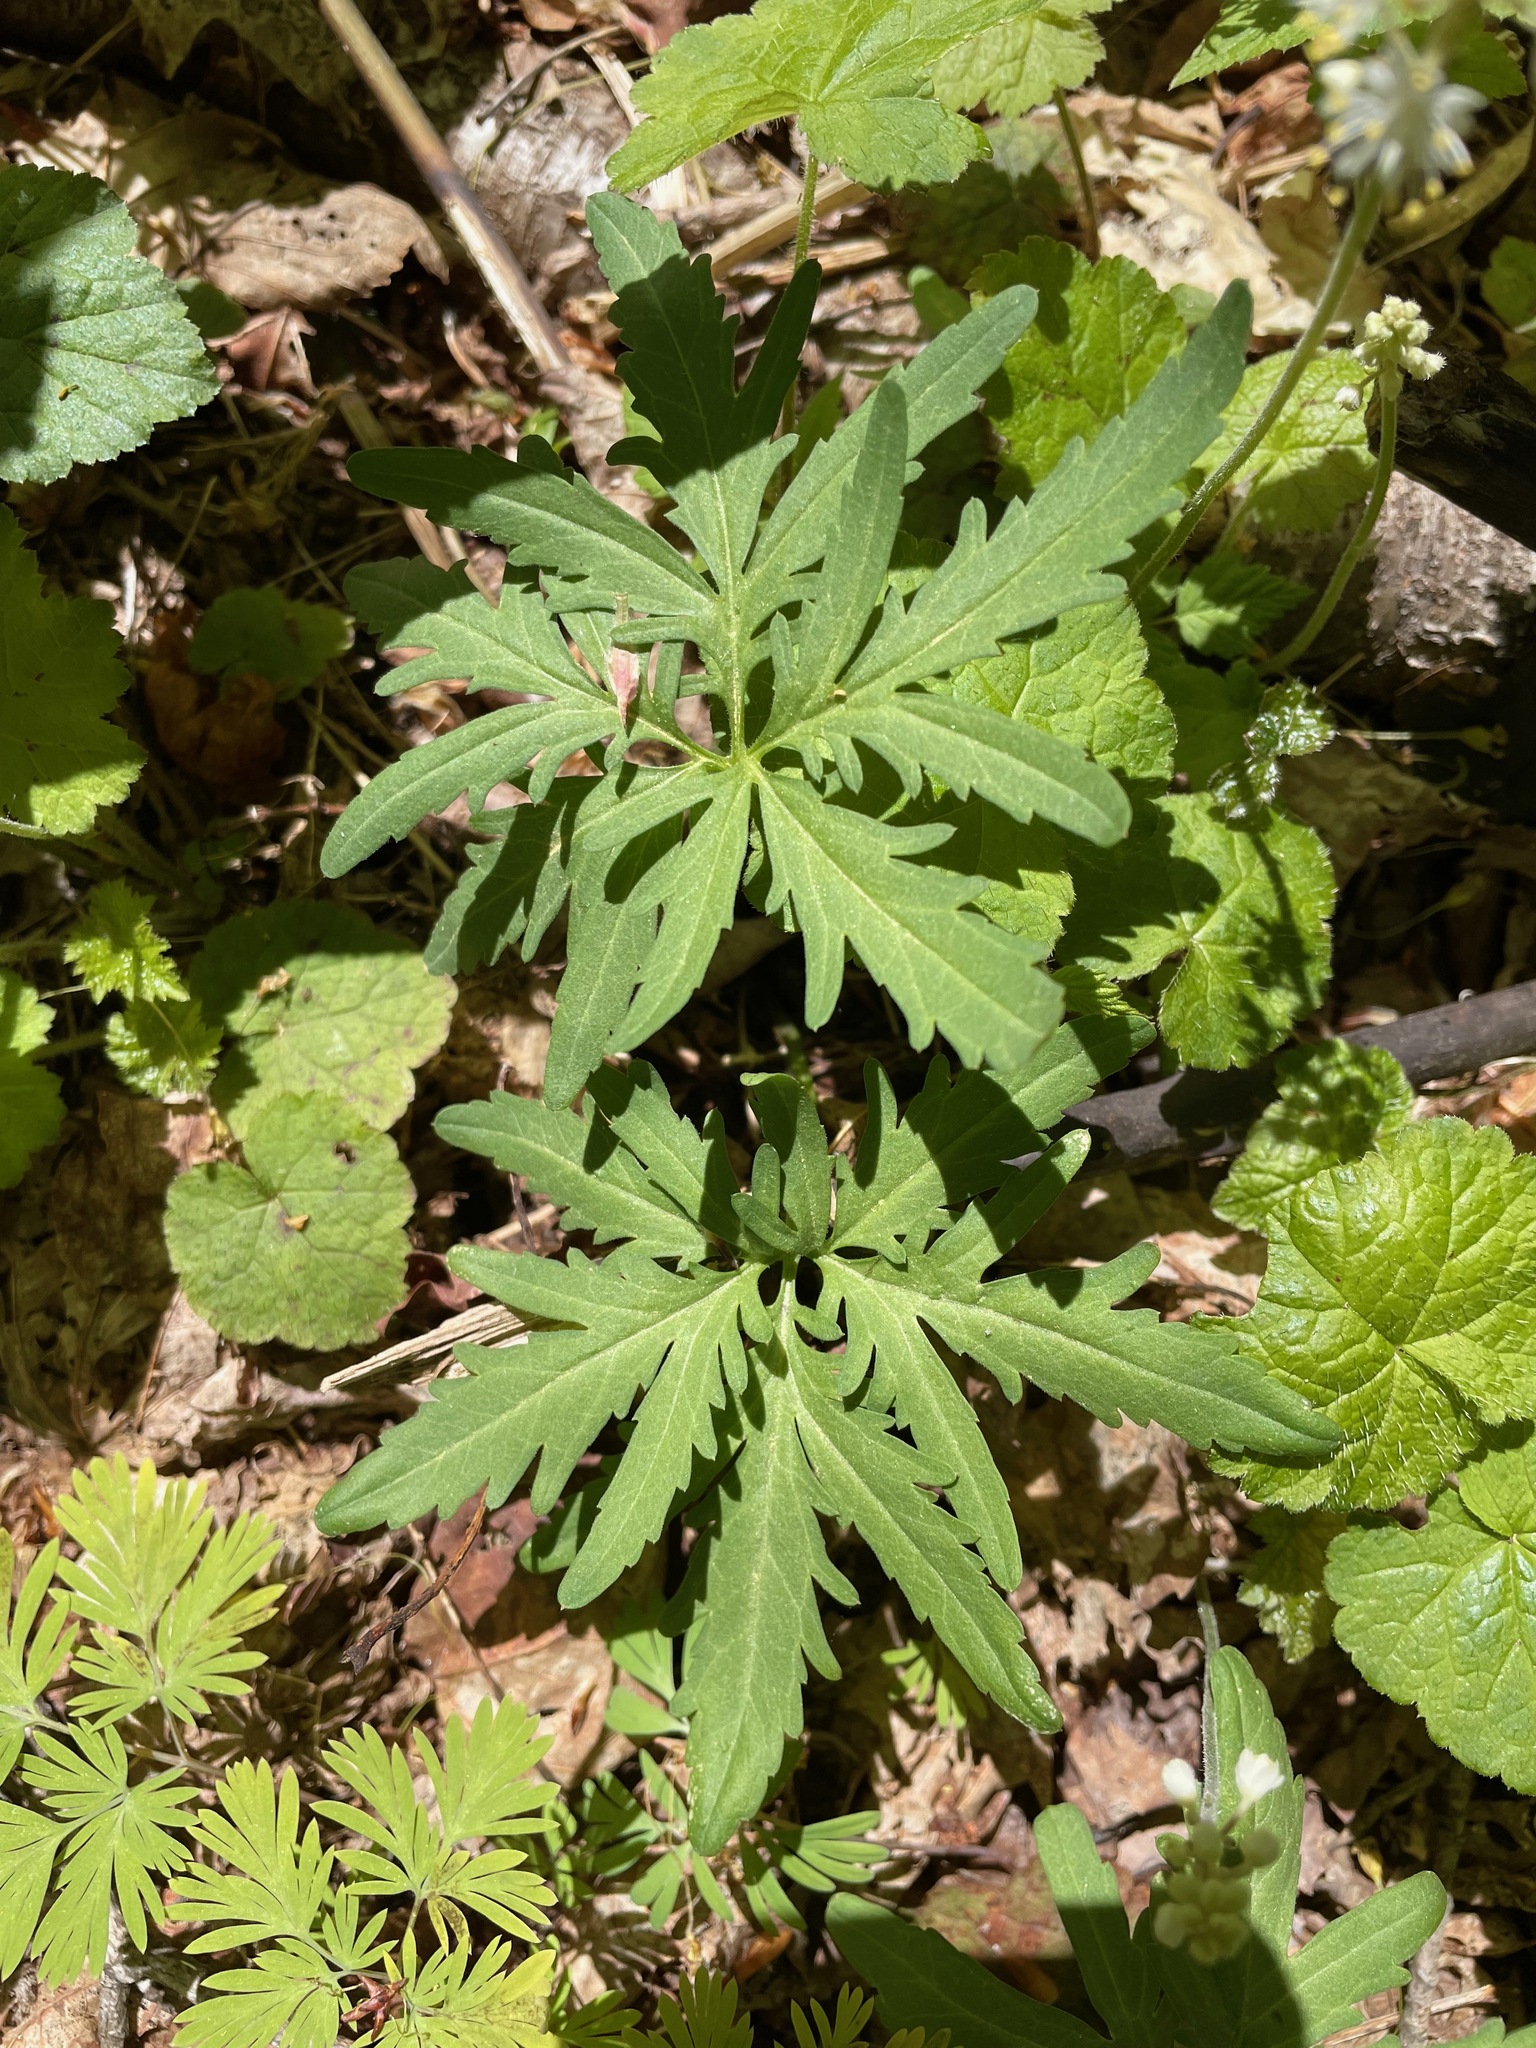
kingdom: Plantae
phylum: Tracheophyta
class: Magnoliopsida
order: Brassicales
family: Brassicaceae
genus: Cardamine
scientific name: Cardamine concatenata
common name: Cut-leaf toothcup
